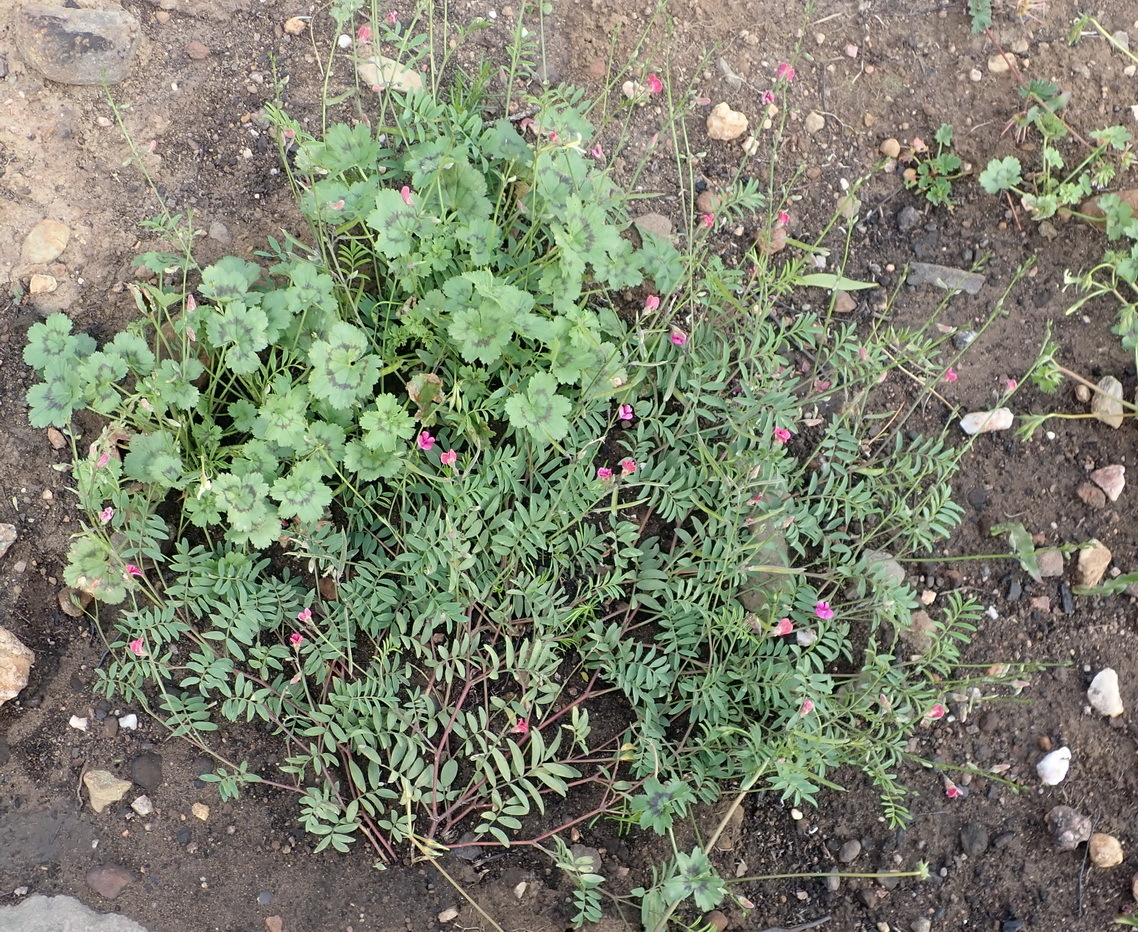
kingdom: Plantae
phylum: Tracheophyta
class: Magnoliopsida
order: Fabales
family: Fabaceae
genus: Tephrosia
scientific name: Tephrosia capensis
